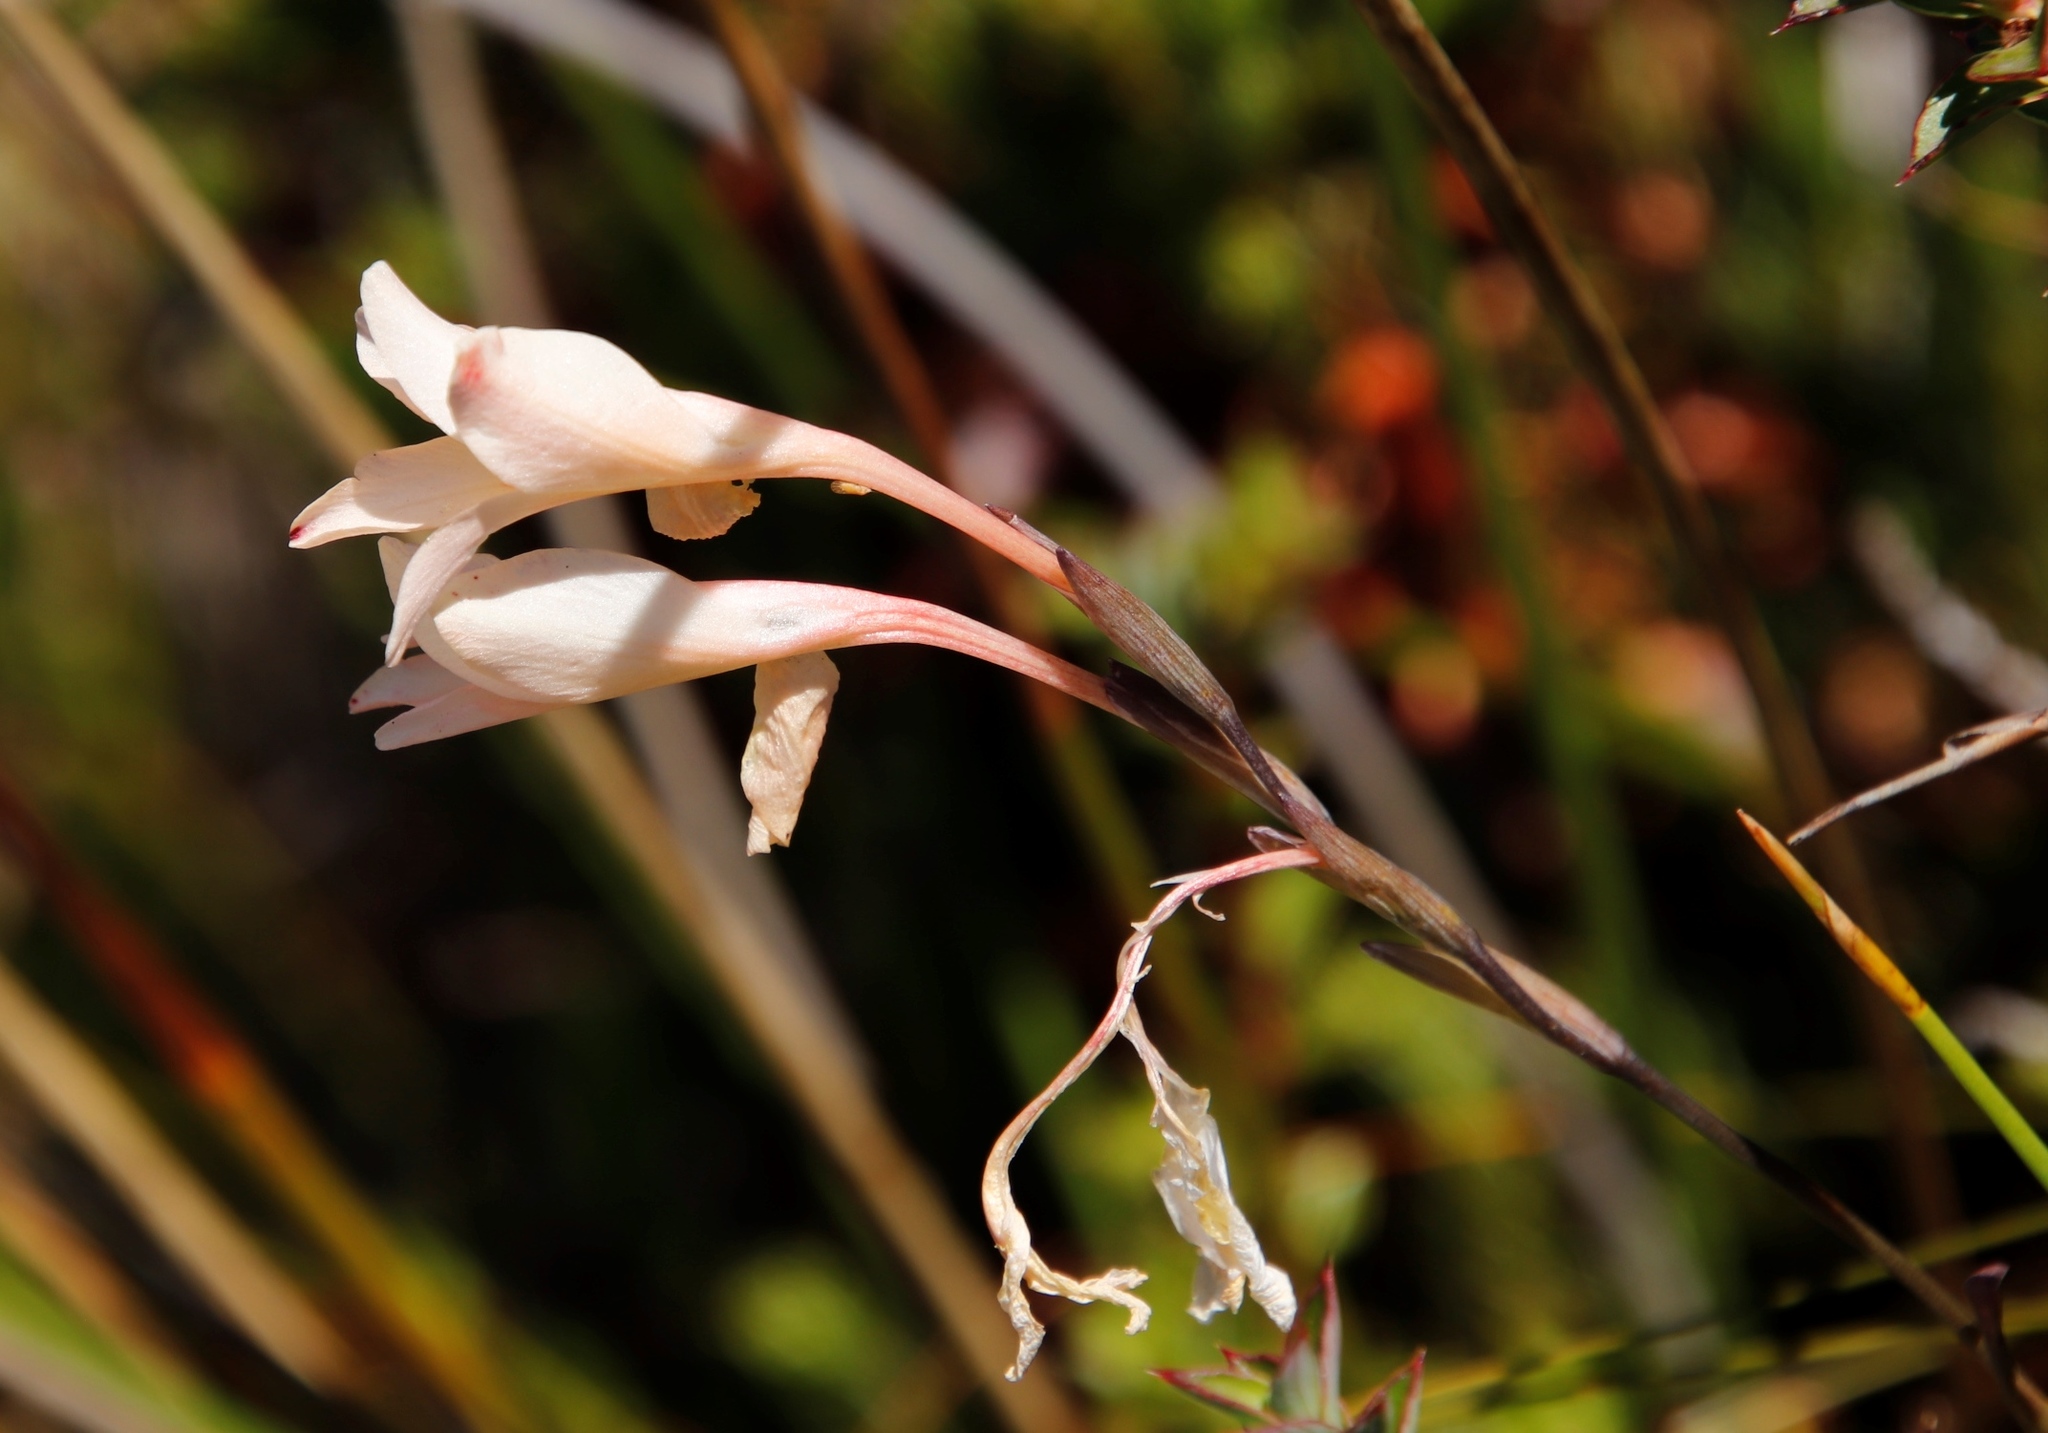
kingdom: Plantae
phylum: Tracheophyta
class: Liliopsida
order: Asparagales
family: Iridaceae
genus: Gladiolus
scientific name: Gladiolus monticola
